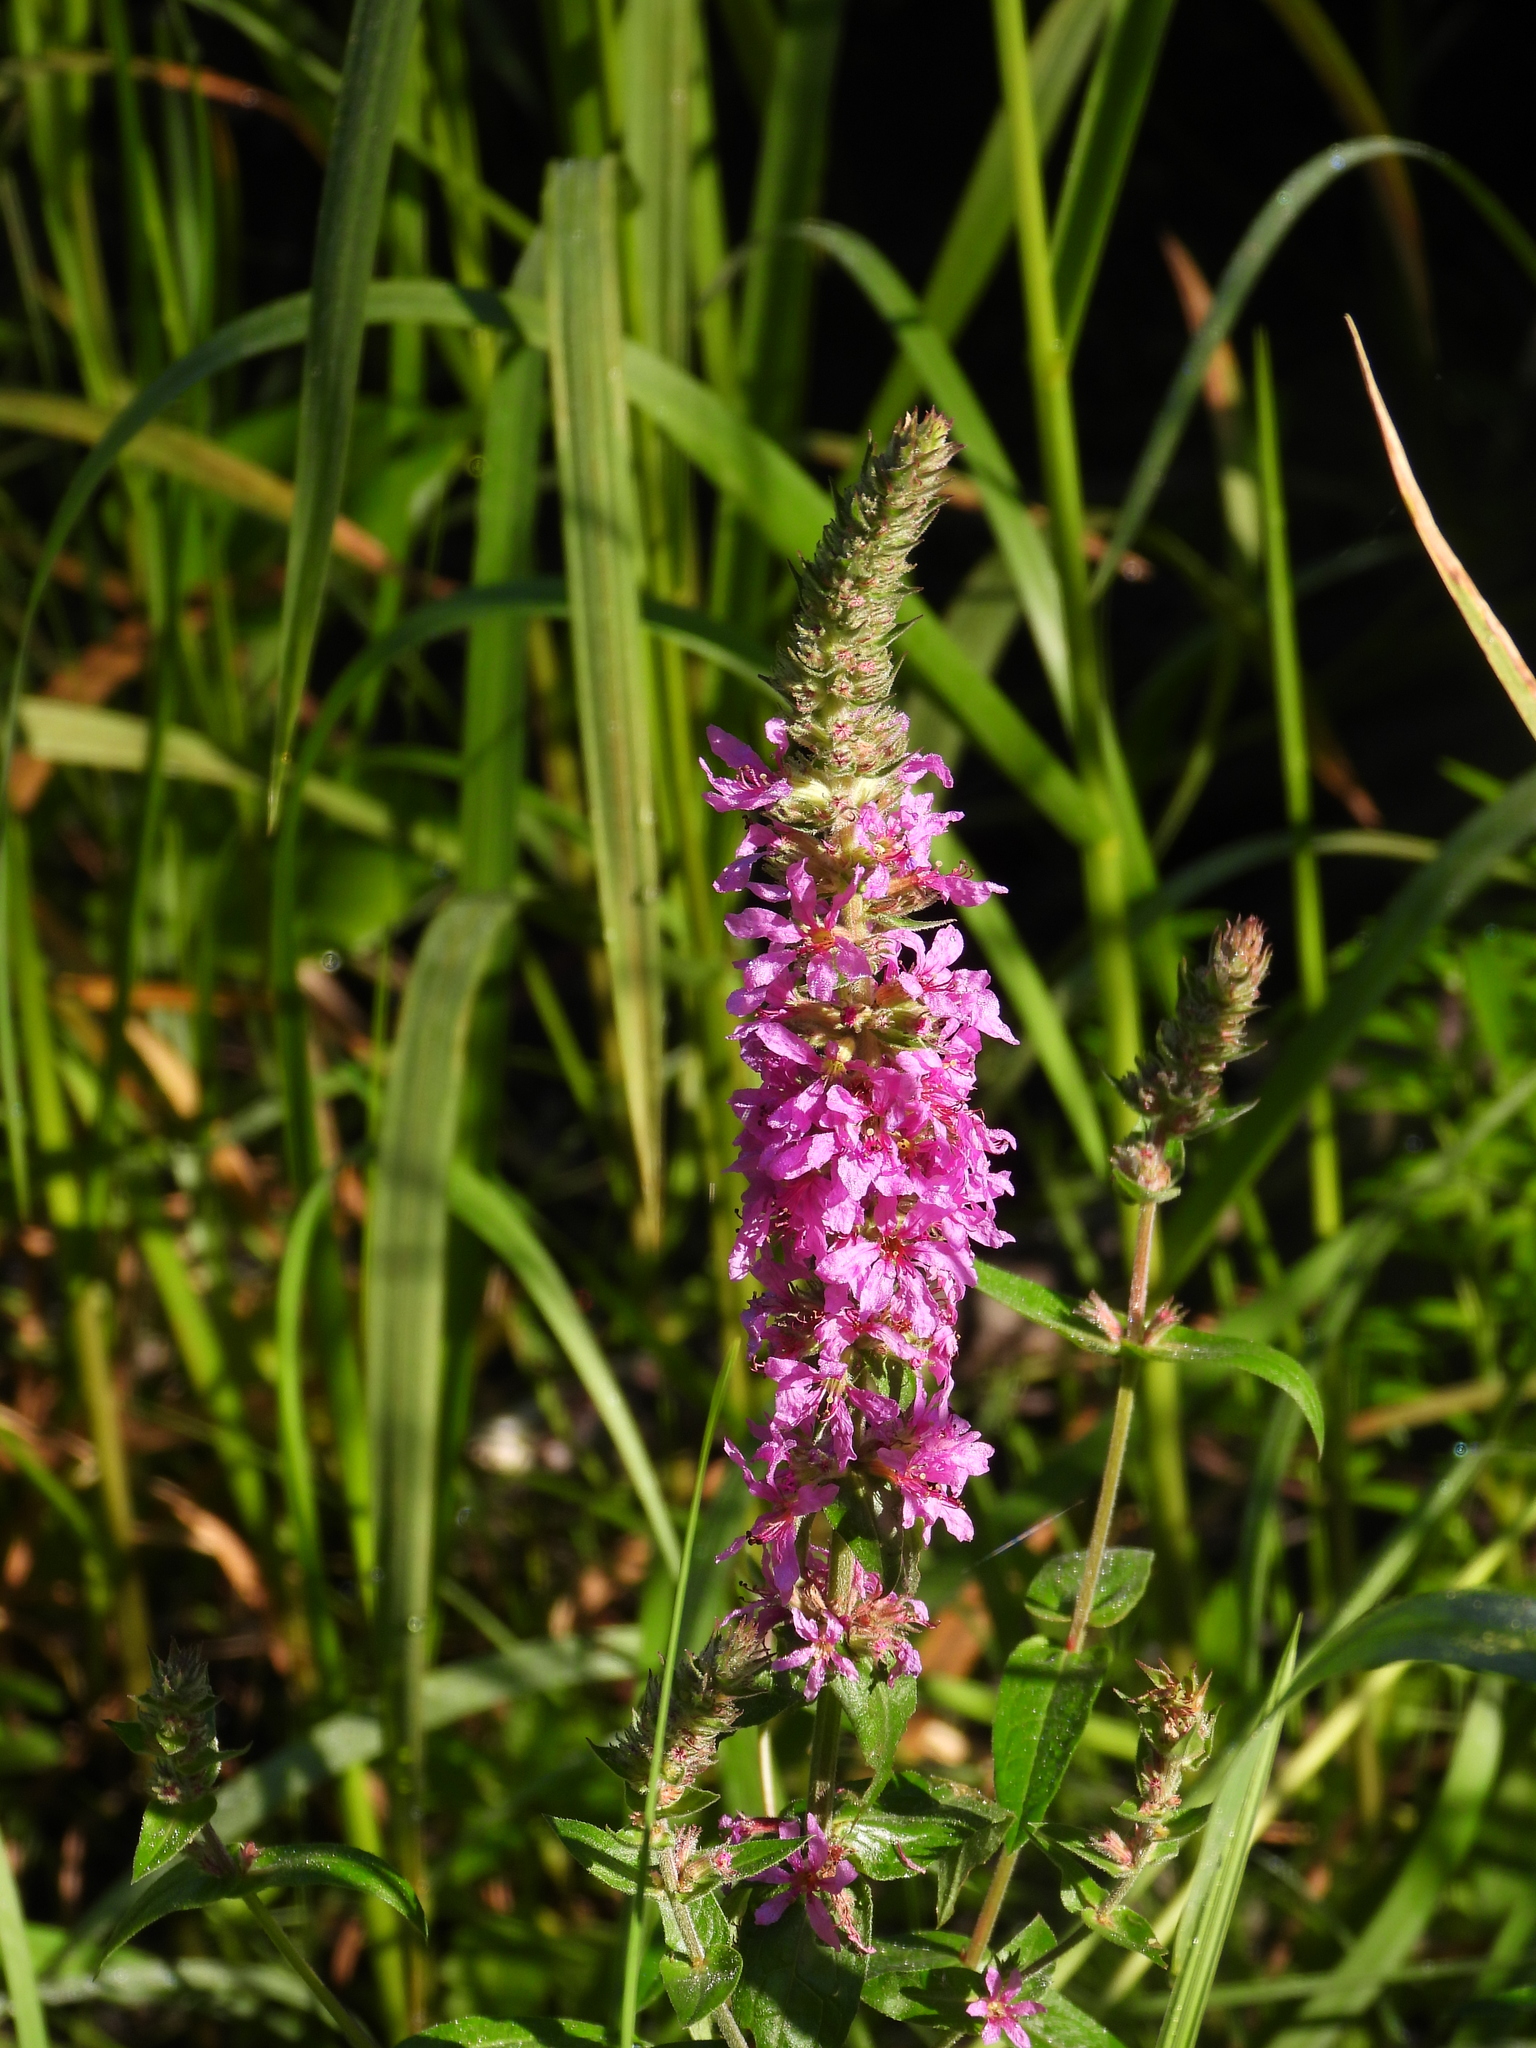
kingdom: Plantae
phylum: Tracheophyta
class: Magnoliopsida
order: Myrtales
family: Lythraceae
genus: Lythrum
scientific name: Lythrum salicaria
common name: Purple loosestrife
